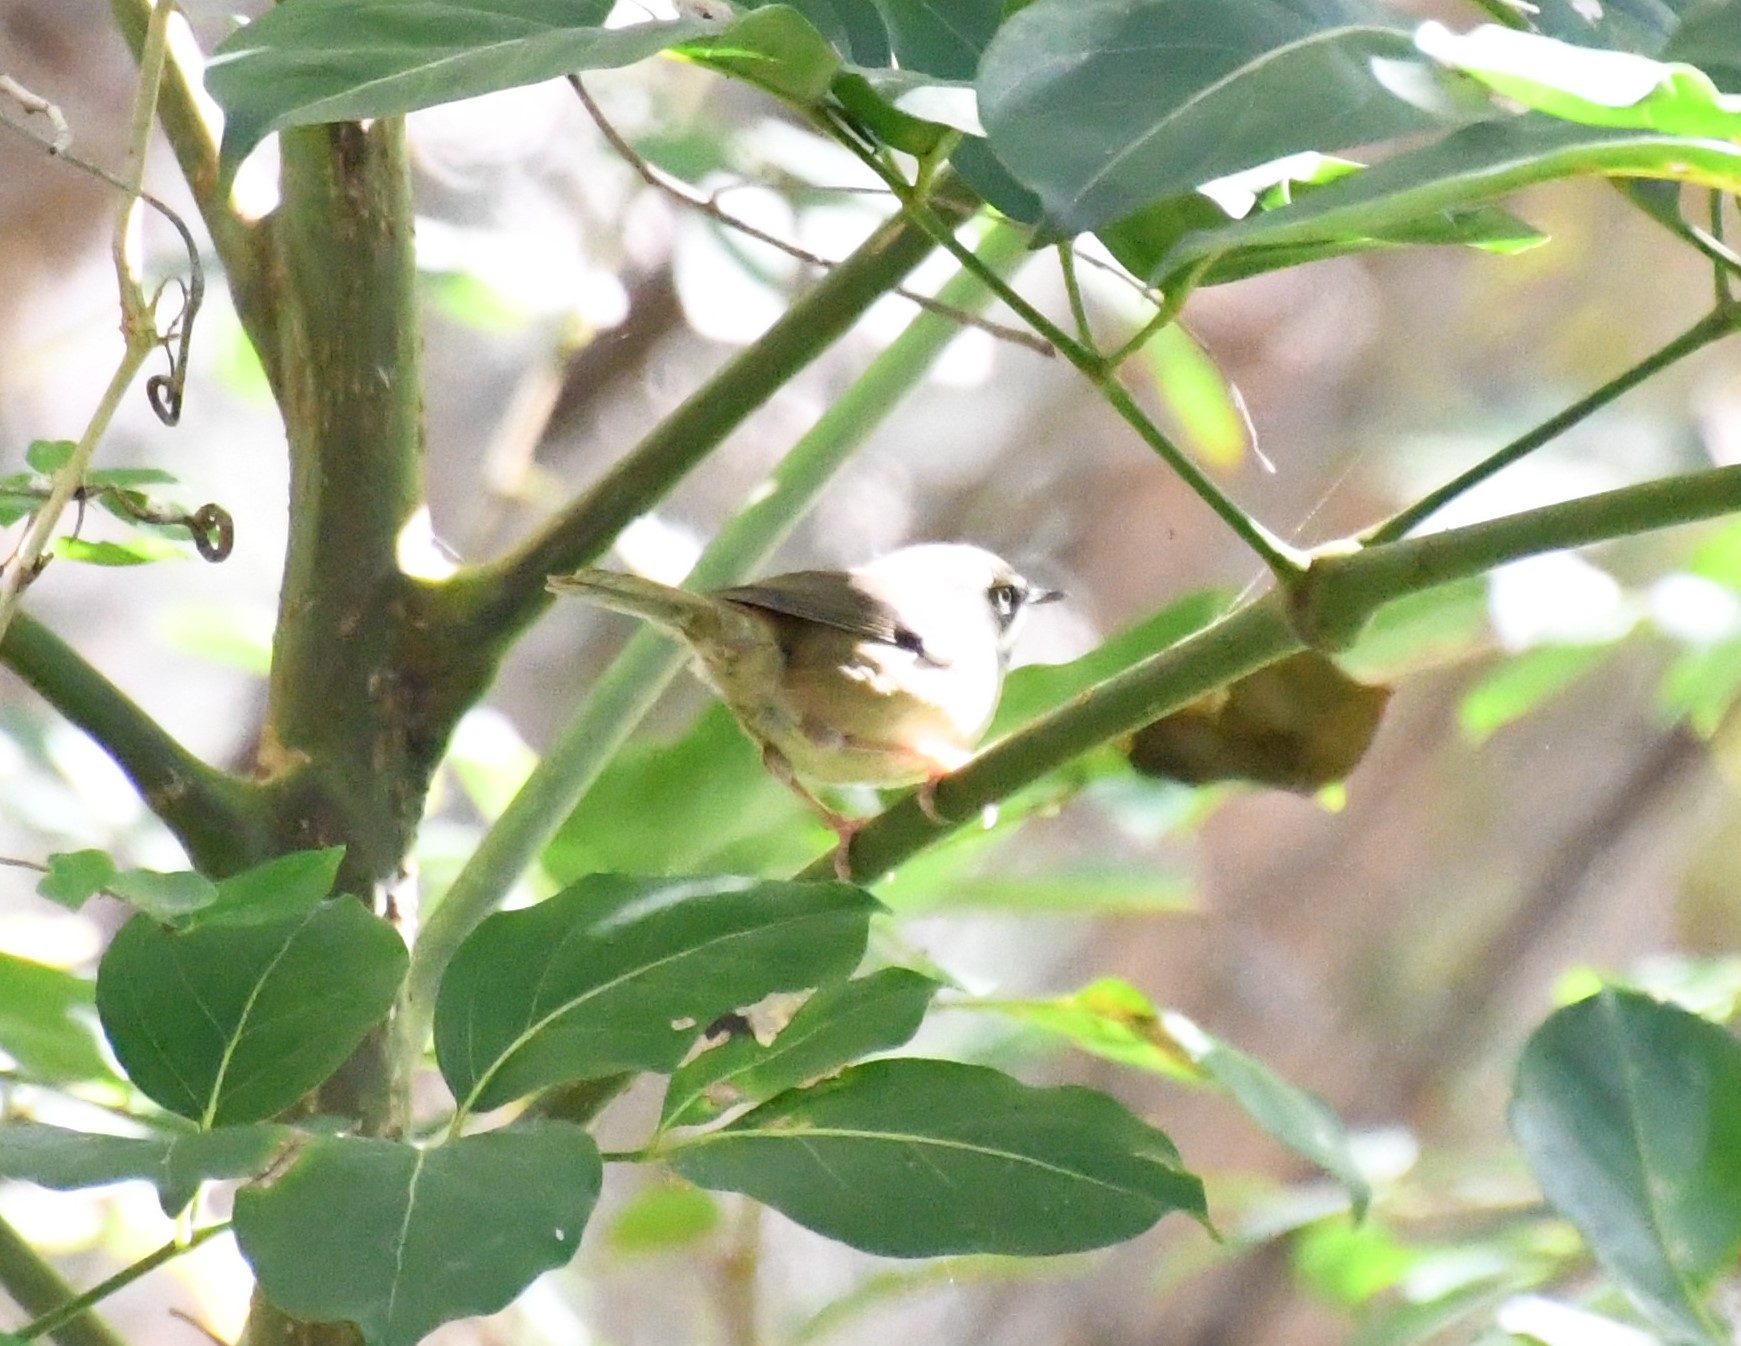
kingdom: Animalia
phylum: Chordata
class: Aves
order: Passeriformes
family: Acanthizidae
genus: Sericornis
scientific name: Sericornis frontalis
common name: White-browed scrubwren
